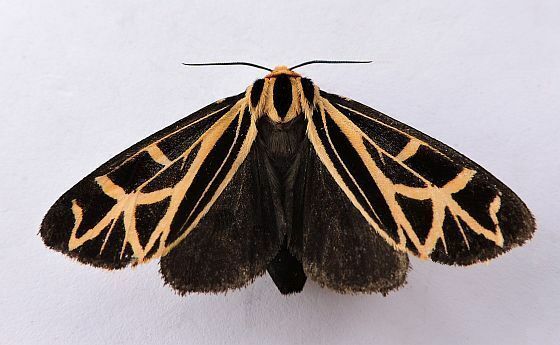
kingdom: Animalia
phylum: Arthropoda
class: Insecta
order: Lepidoptera
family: Erebidae
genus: Apantesis
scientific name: Apantesis
